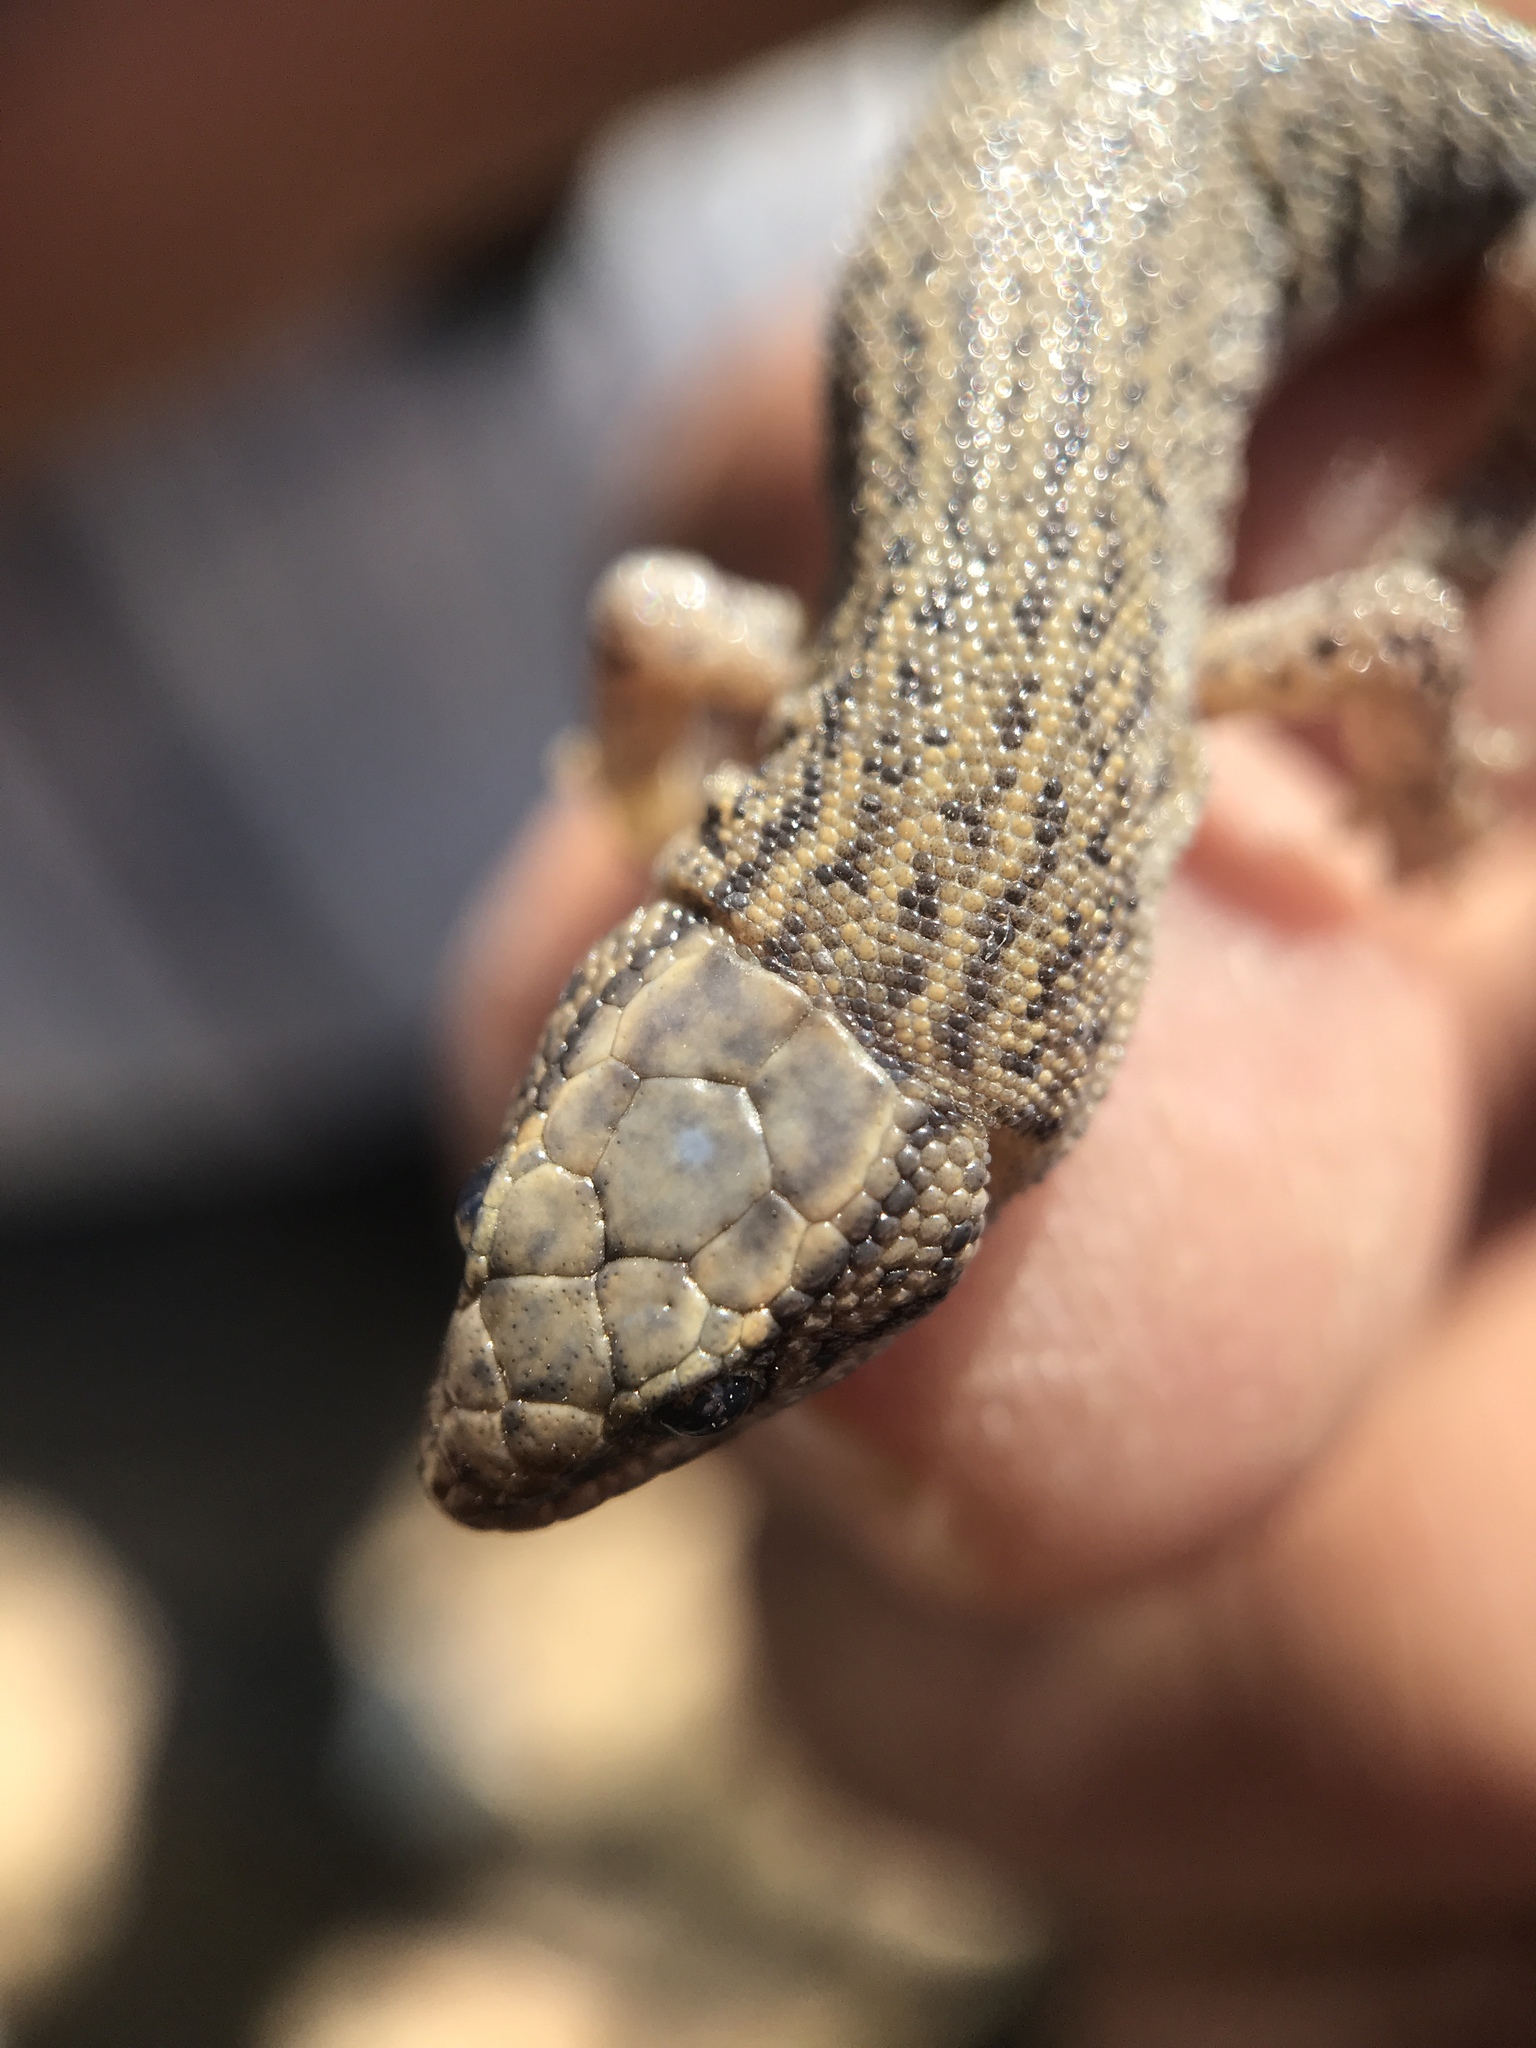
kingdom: Animalia
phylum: Chordata
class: Squamata
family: Xantusiidae
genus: Xantusia
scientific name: Xantusia vigilis
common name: Desert night lizard
